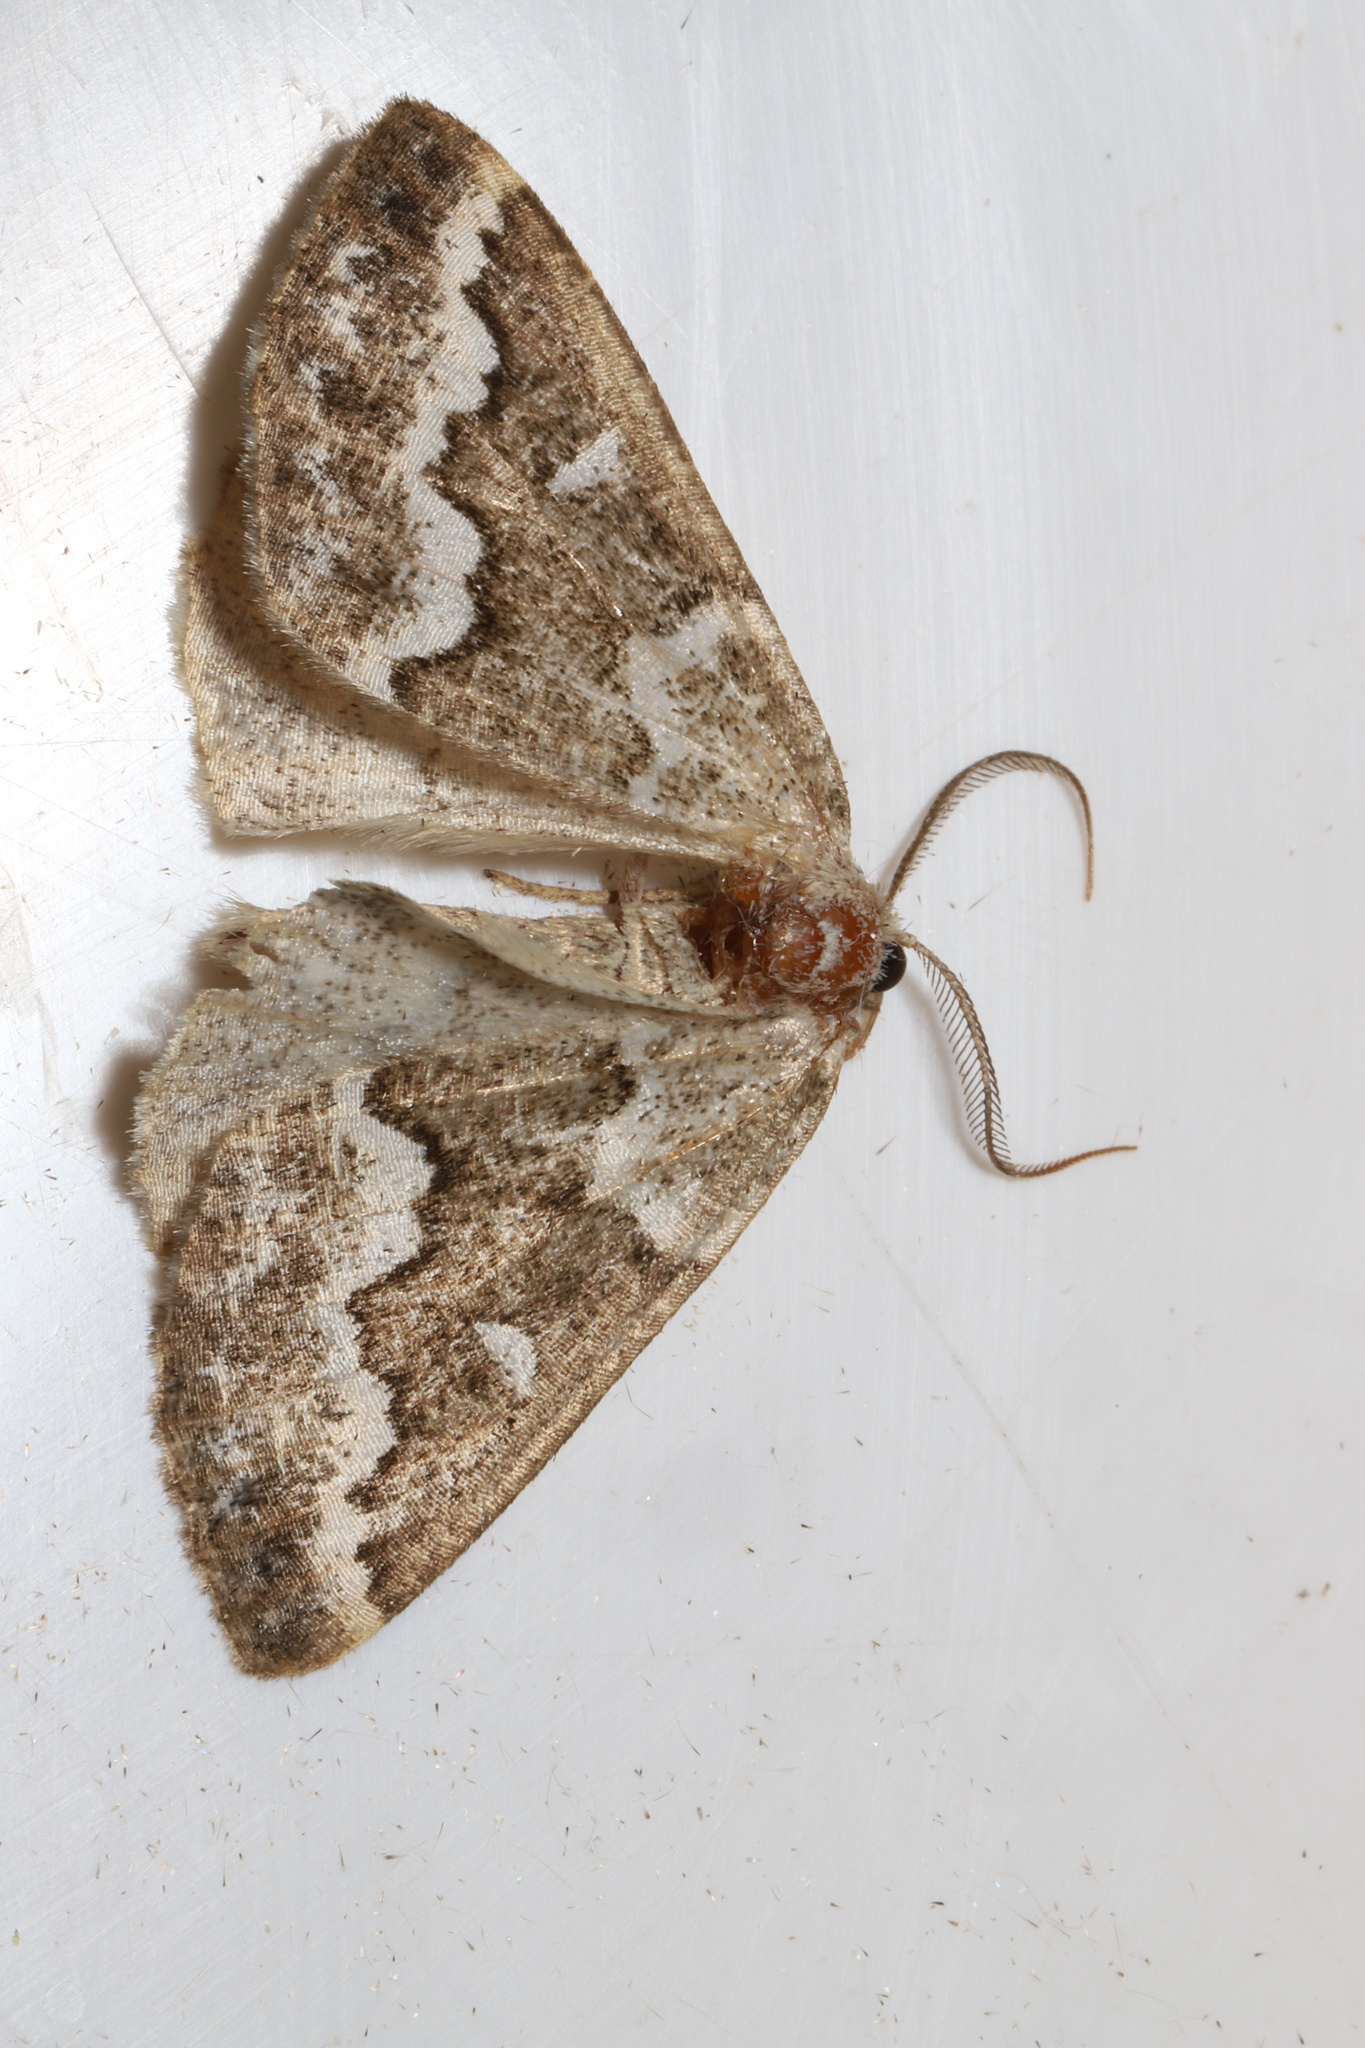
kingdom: Animalia
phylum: Arthropoda
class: Insecta
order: Lepidoptera
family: Geometridae
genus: Caripeta
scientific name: Caripeta divisata
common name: Gray spruce looper
